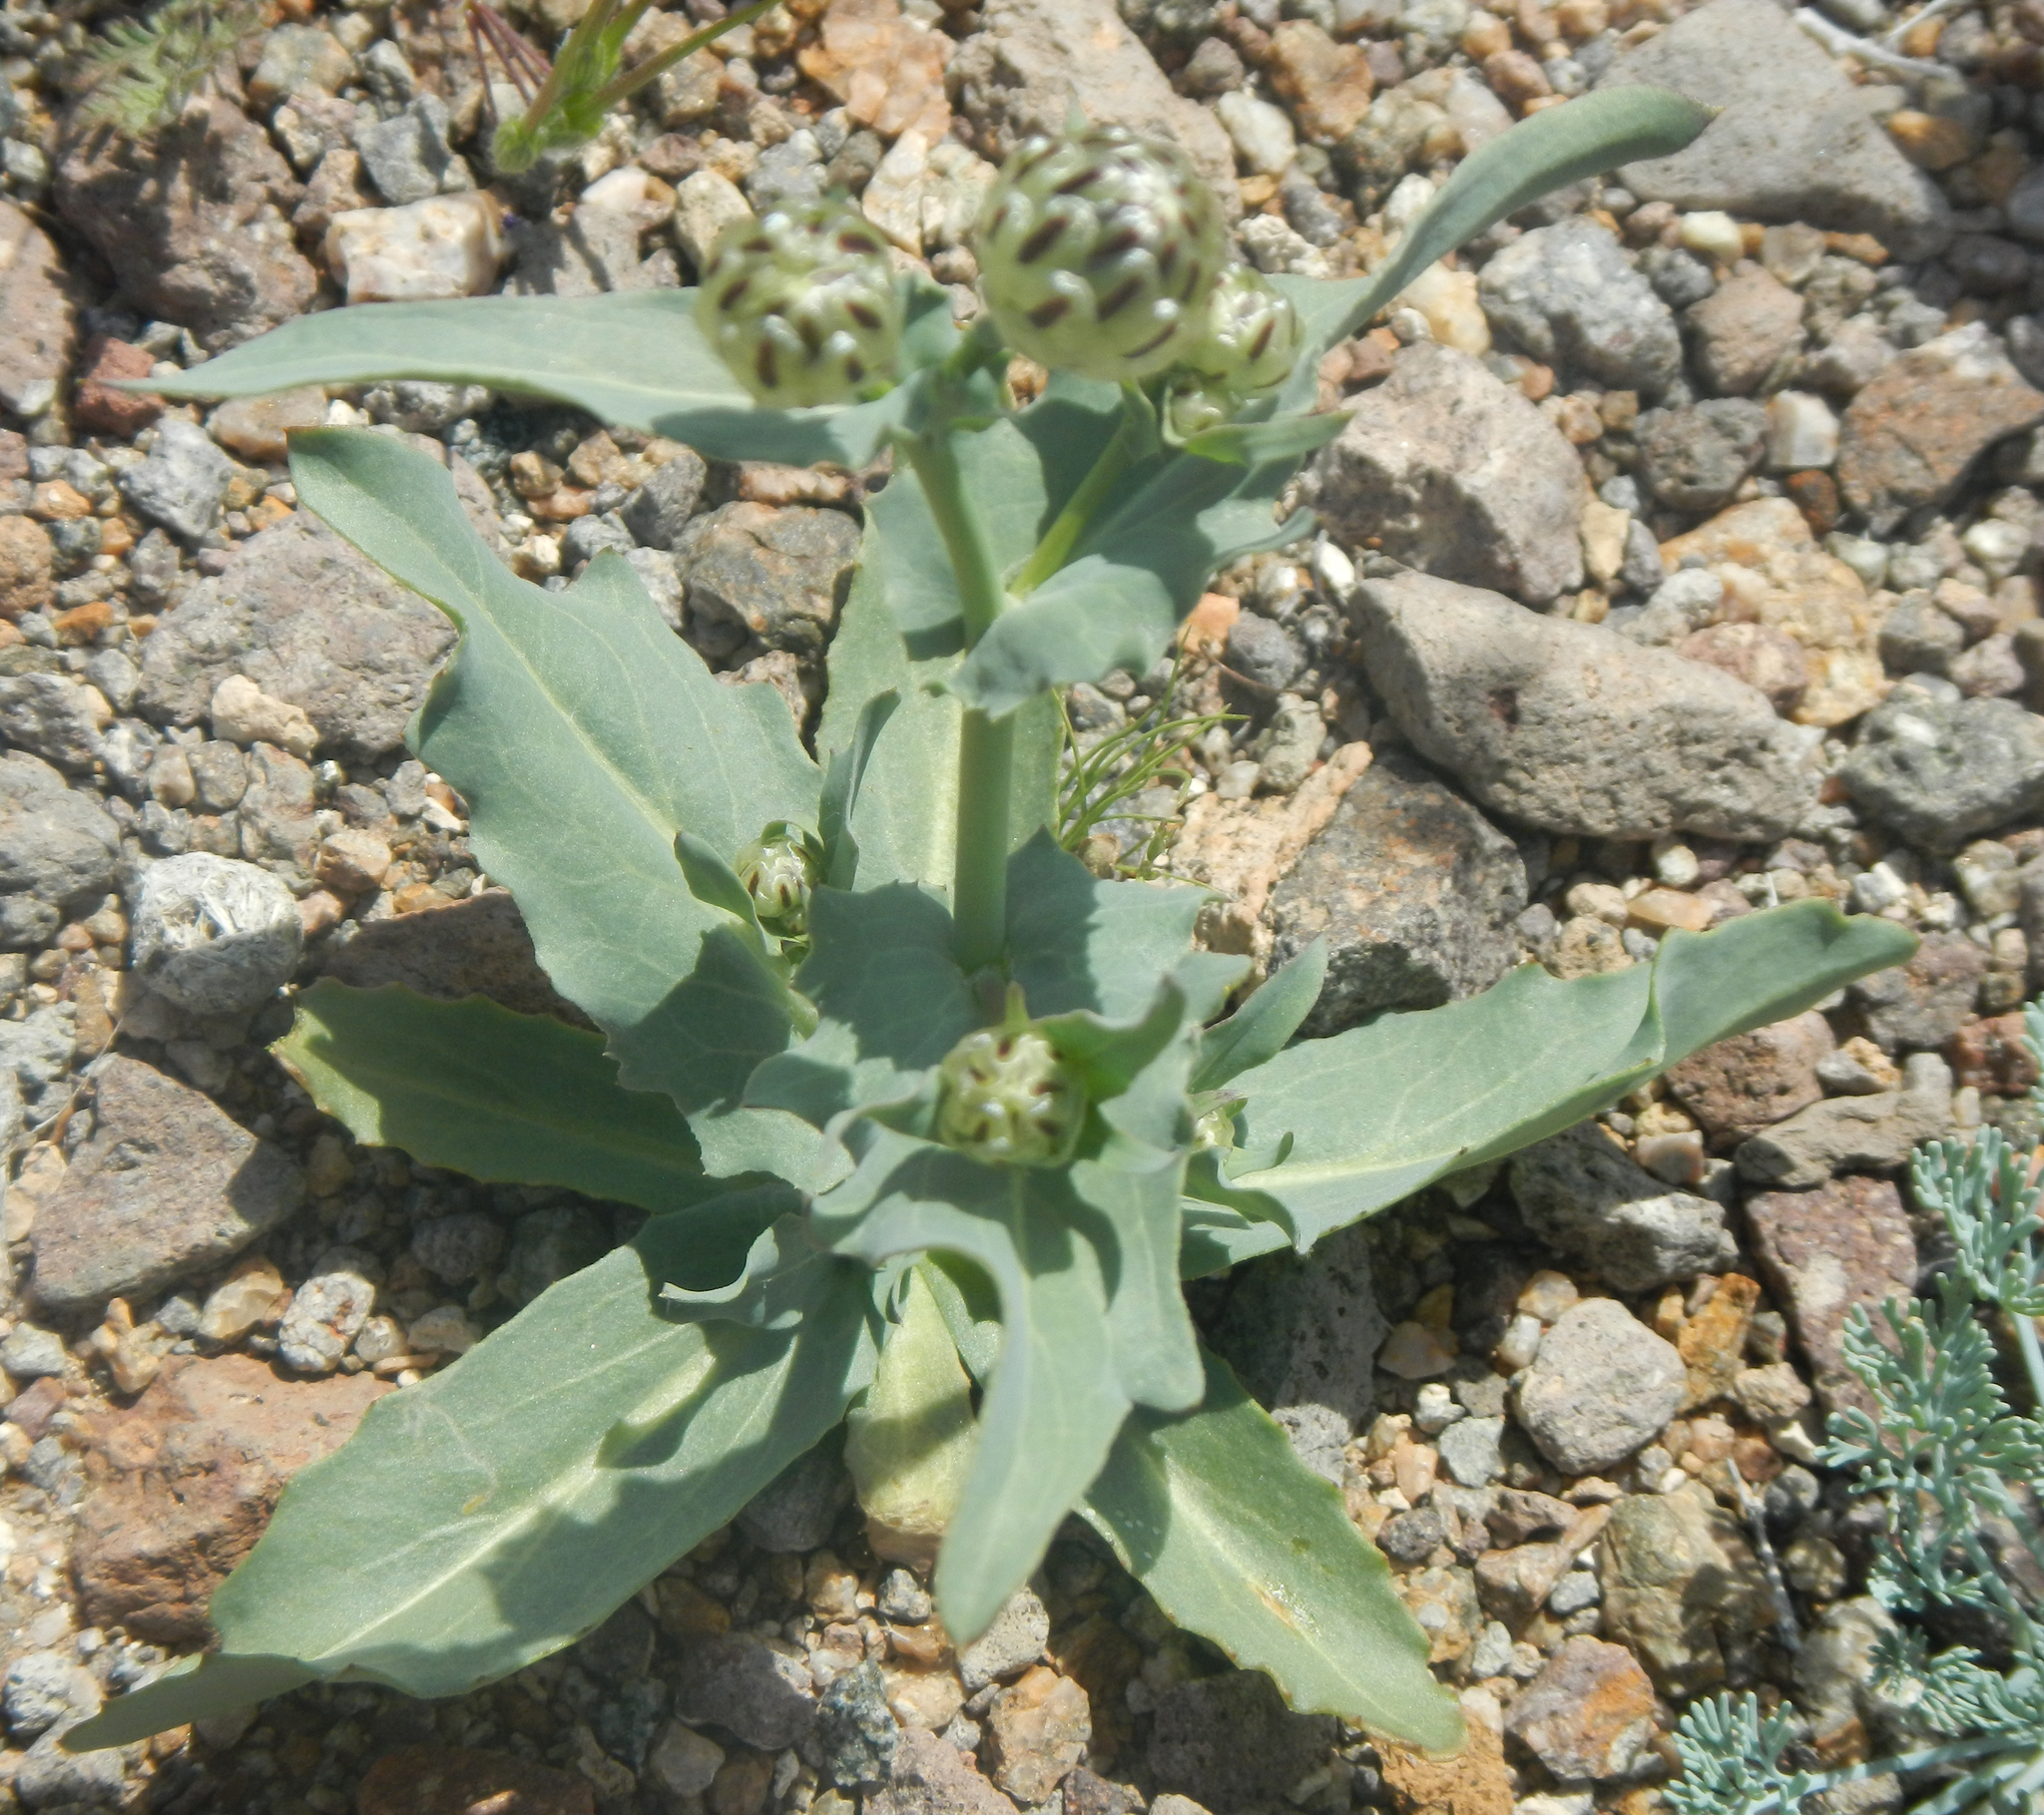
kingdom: Plantae
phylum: Tracheophyta
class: Magnoliopsida
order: Asterales
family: Asteraceae
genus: Malacothrix
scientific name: Malacothrix coulteri
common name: Snake's-head
